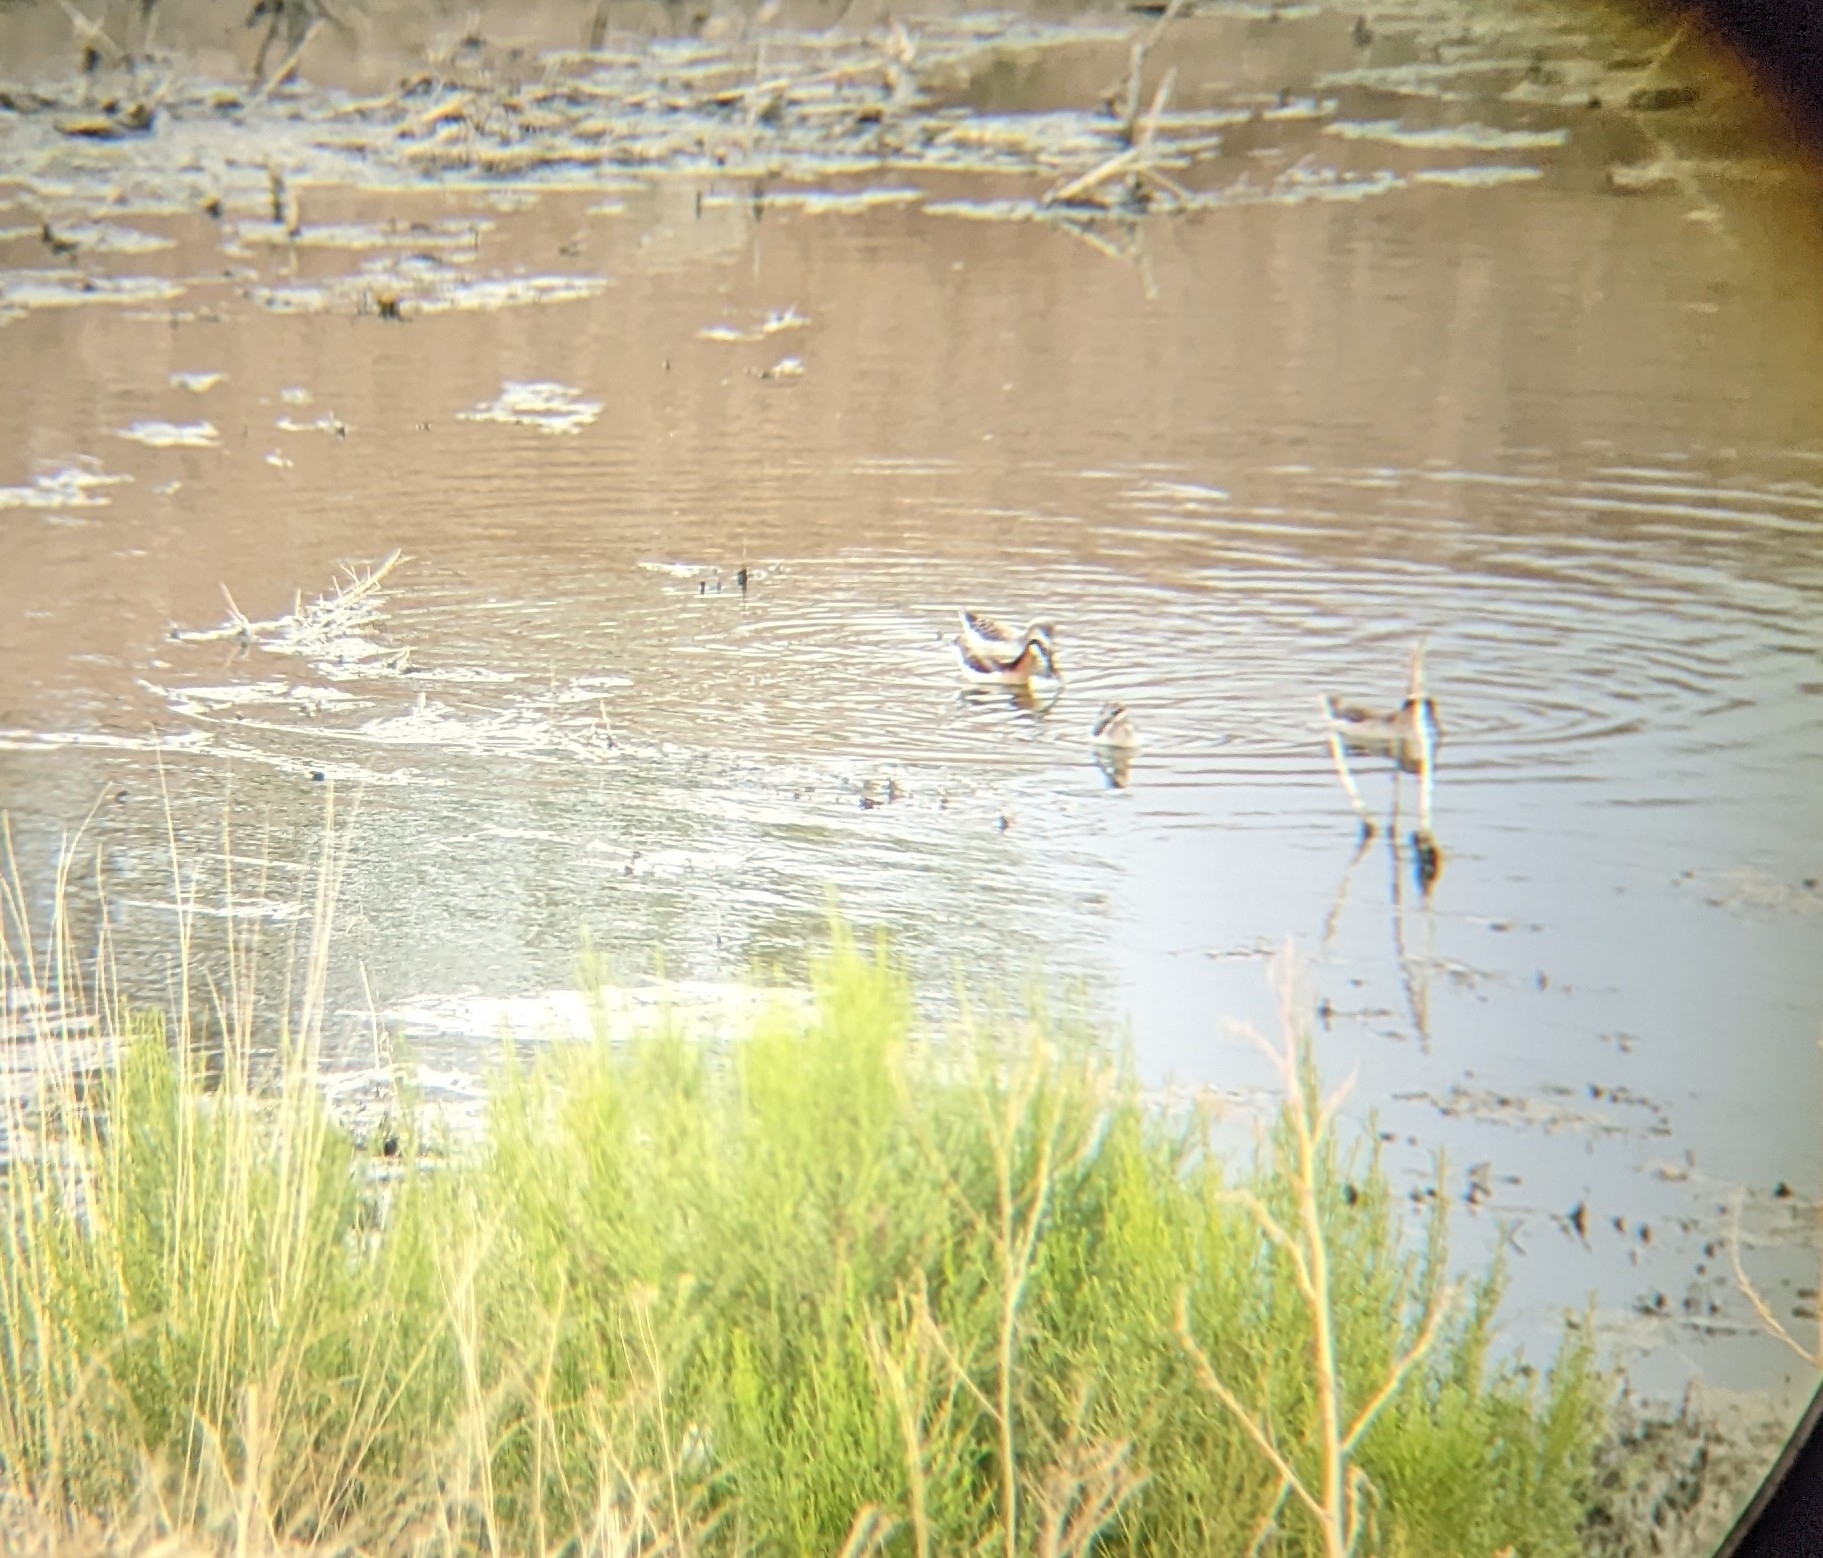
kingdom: Animalia
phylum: Chordata
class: Aves
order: Charadriiformes
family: Scolopacidae
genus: Phalaropus
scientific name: Phalaropus tricolor
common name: Wilson's phalarope
